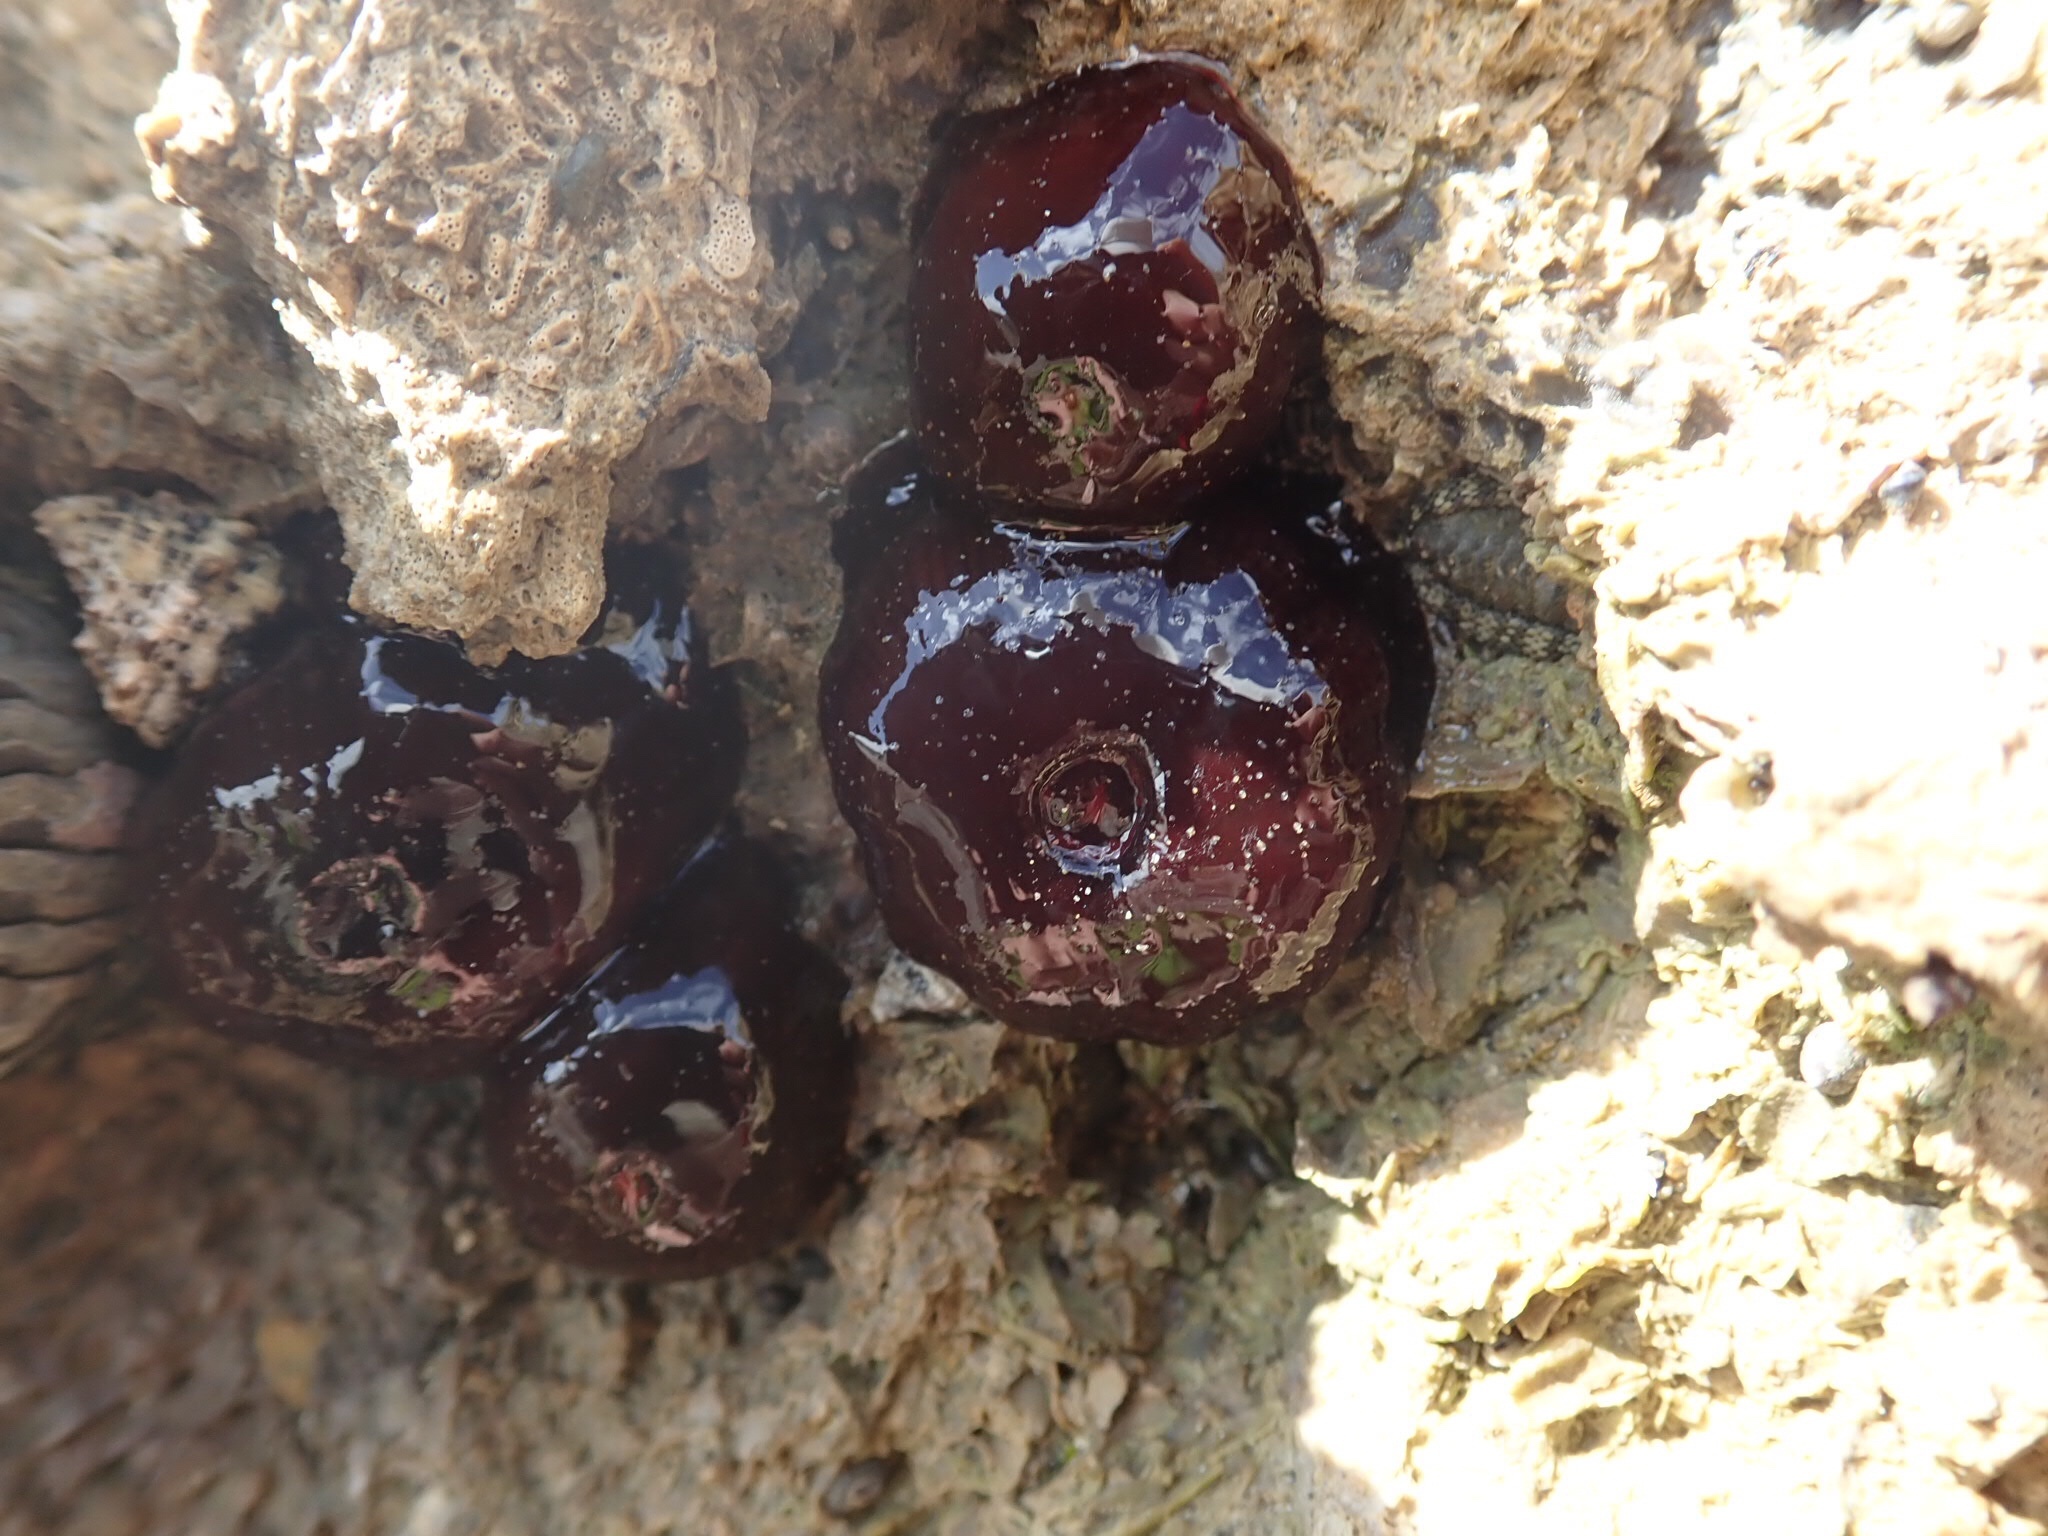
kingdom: Animalia
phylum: Cnidaria
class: Anthozoa
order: Actiniaria
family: Actiniidae
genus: Actinia
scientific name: Actinia tenebrosa
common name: Waratah anemone
